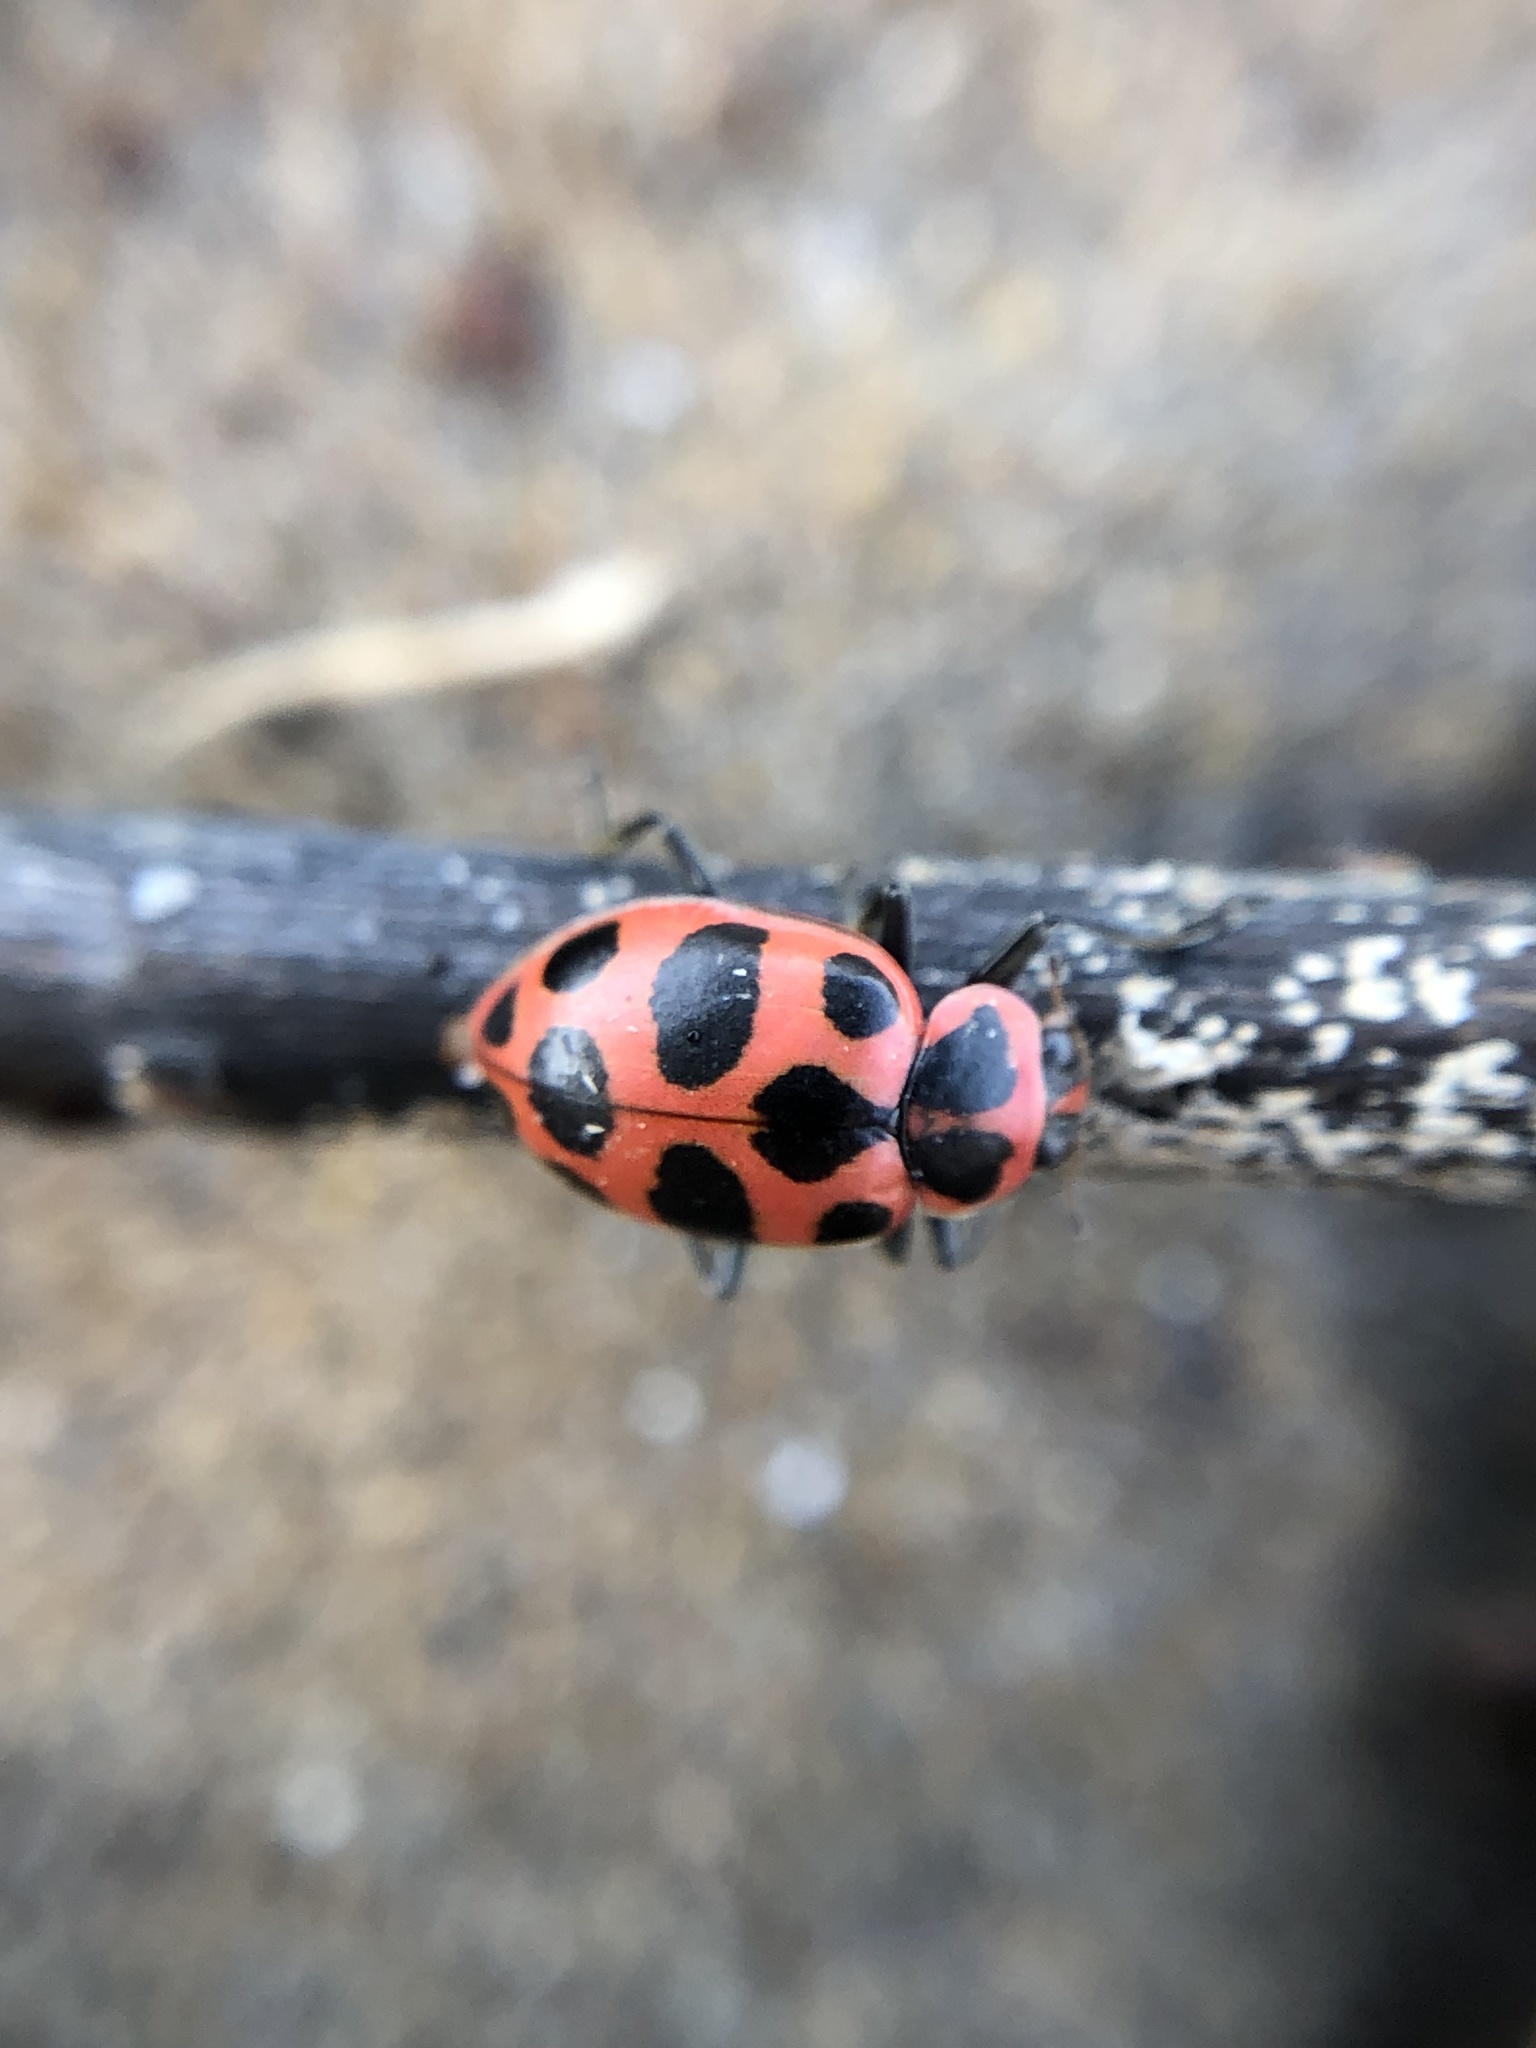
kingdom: Animalia
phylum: Arthropoda
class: Insecta
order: Coleoptera
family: Coccinellidae
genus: Coleomegilla
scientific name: Coleomegilla maculata
